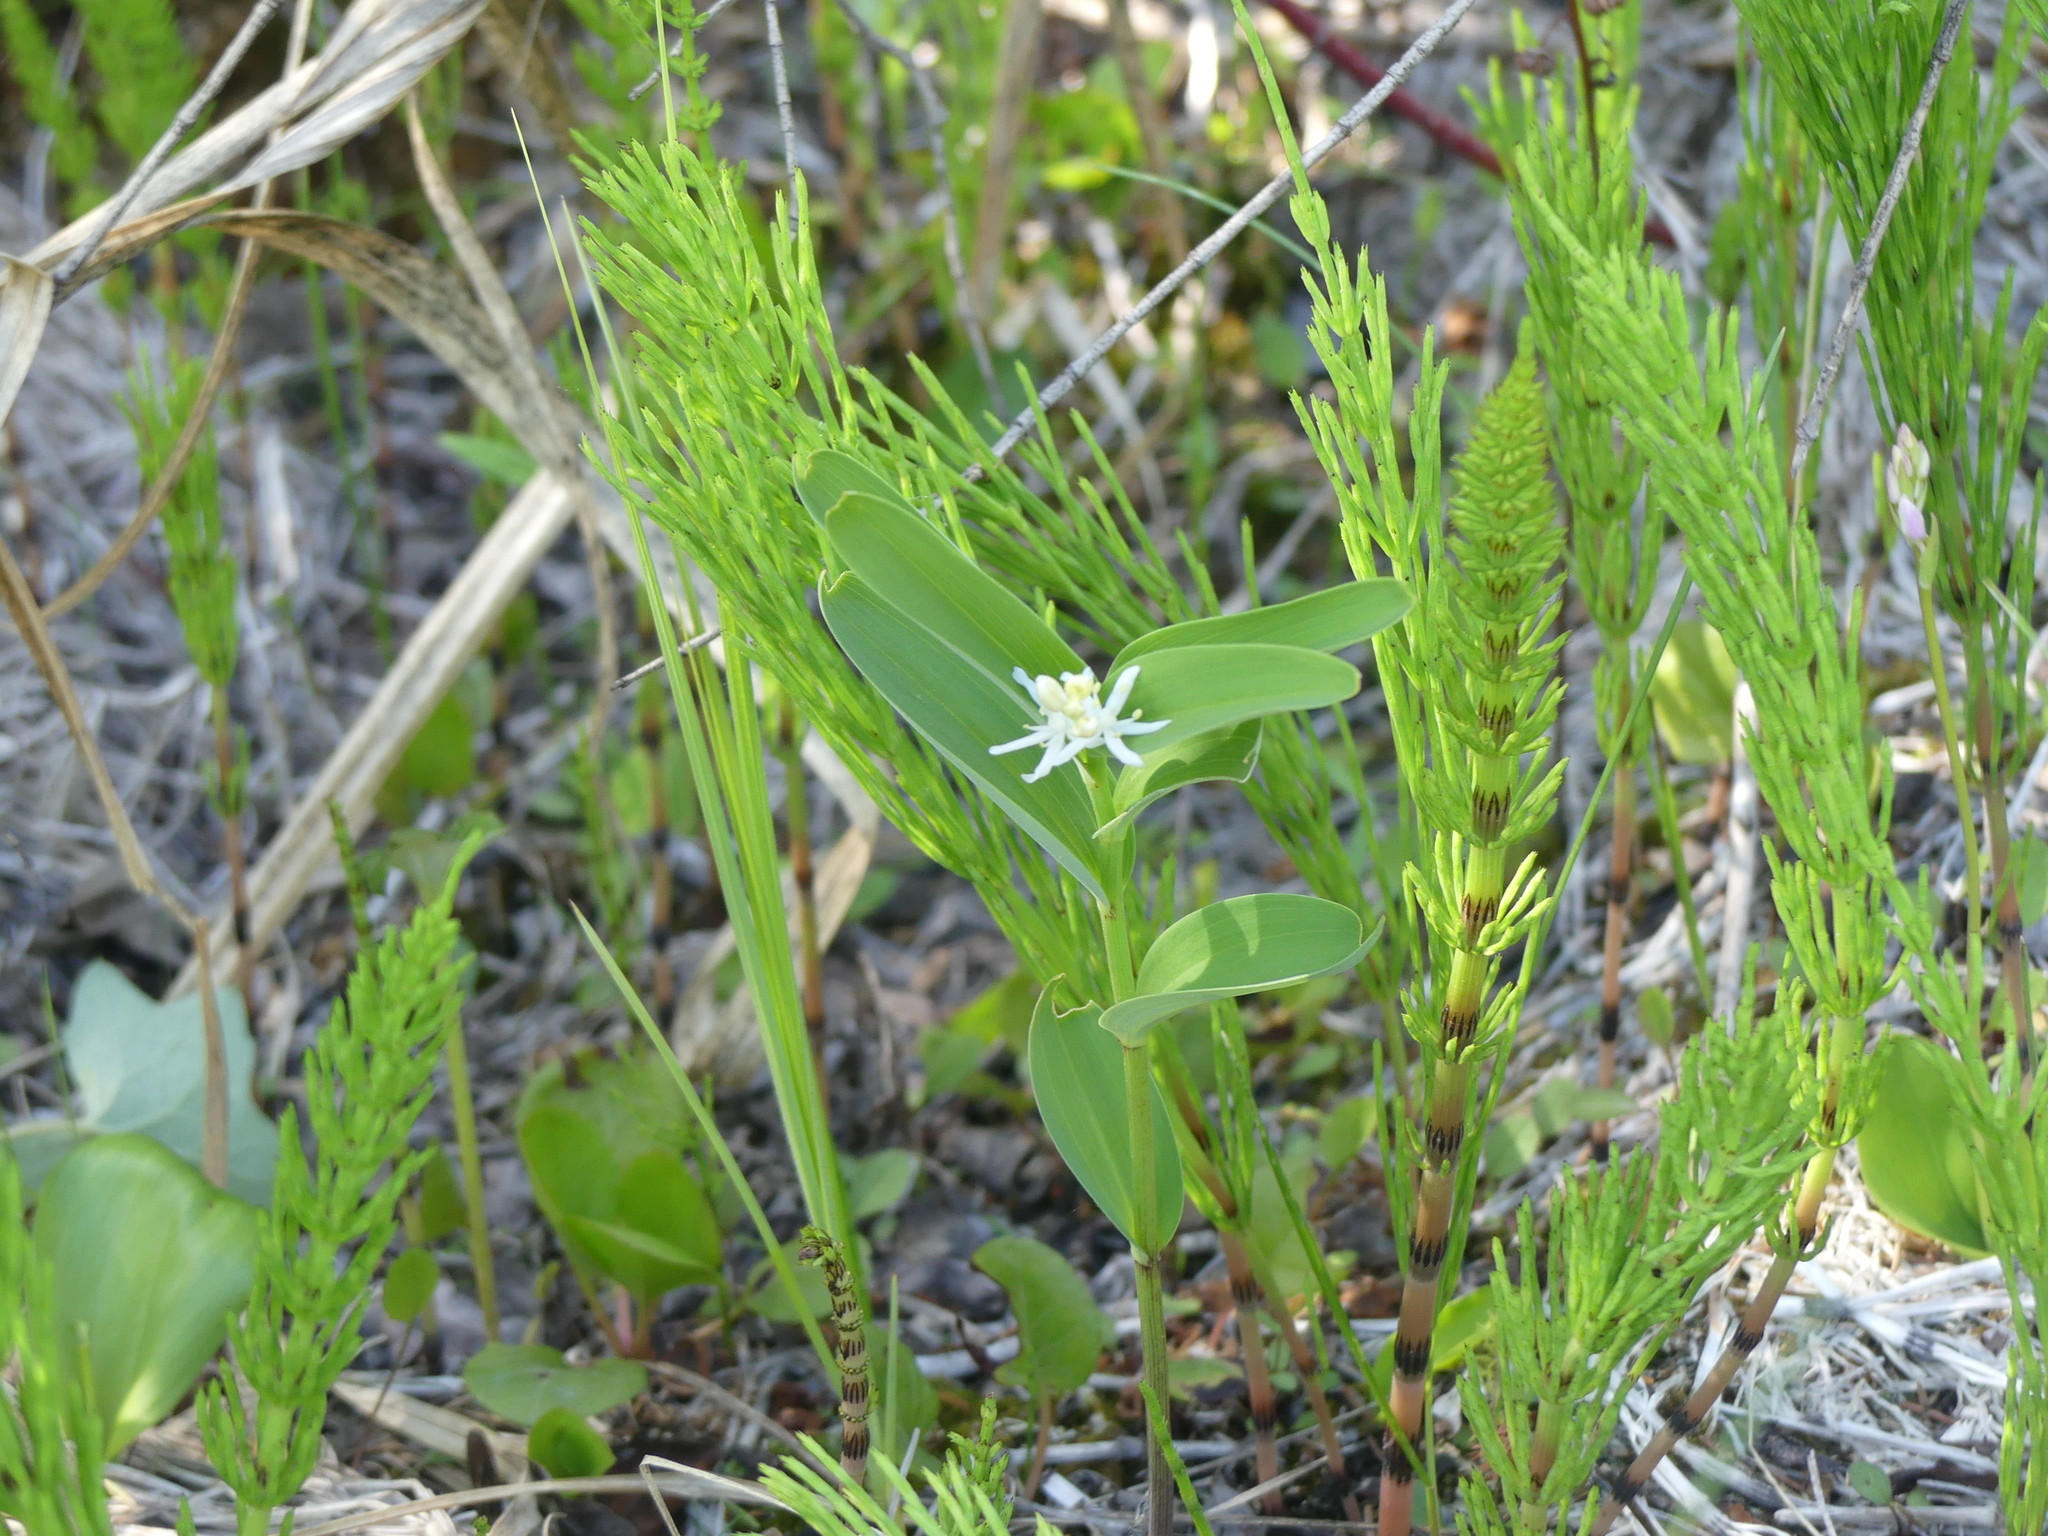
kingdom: Plantae
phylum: Tracheophyta
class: Liliopsida
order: Asparagales
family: Asparagaceae
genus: Maianthemum
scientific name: Maianthemum stellatum
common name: Little false solomon's seal
